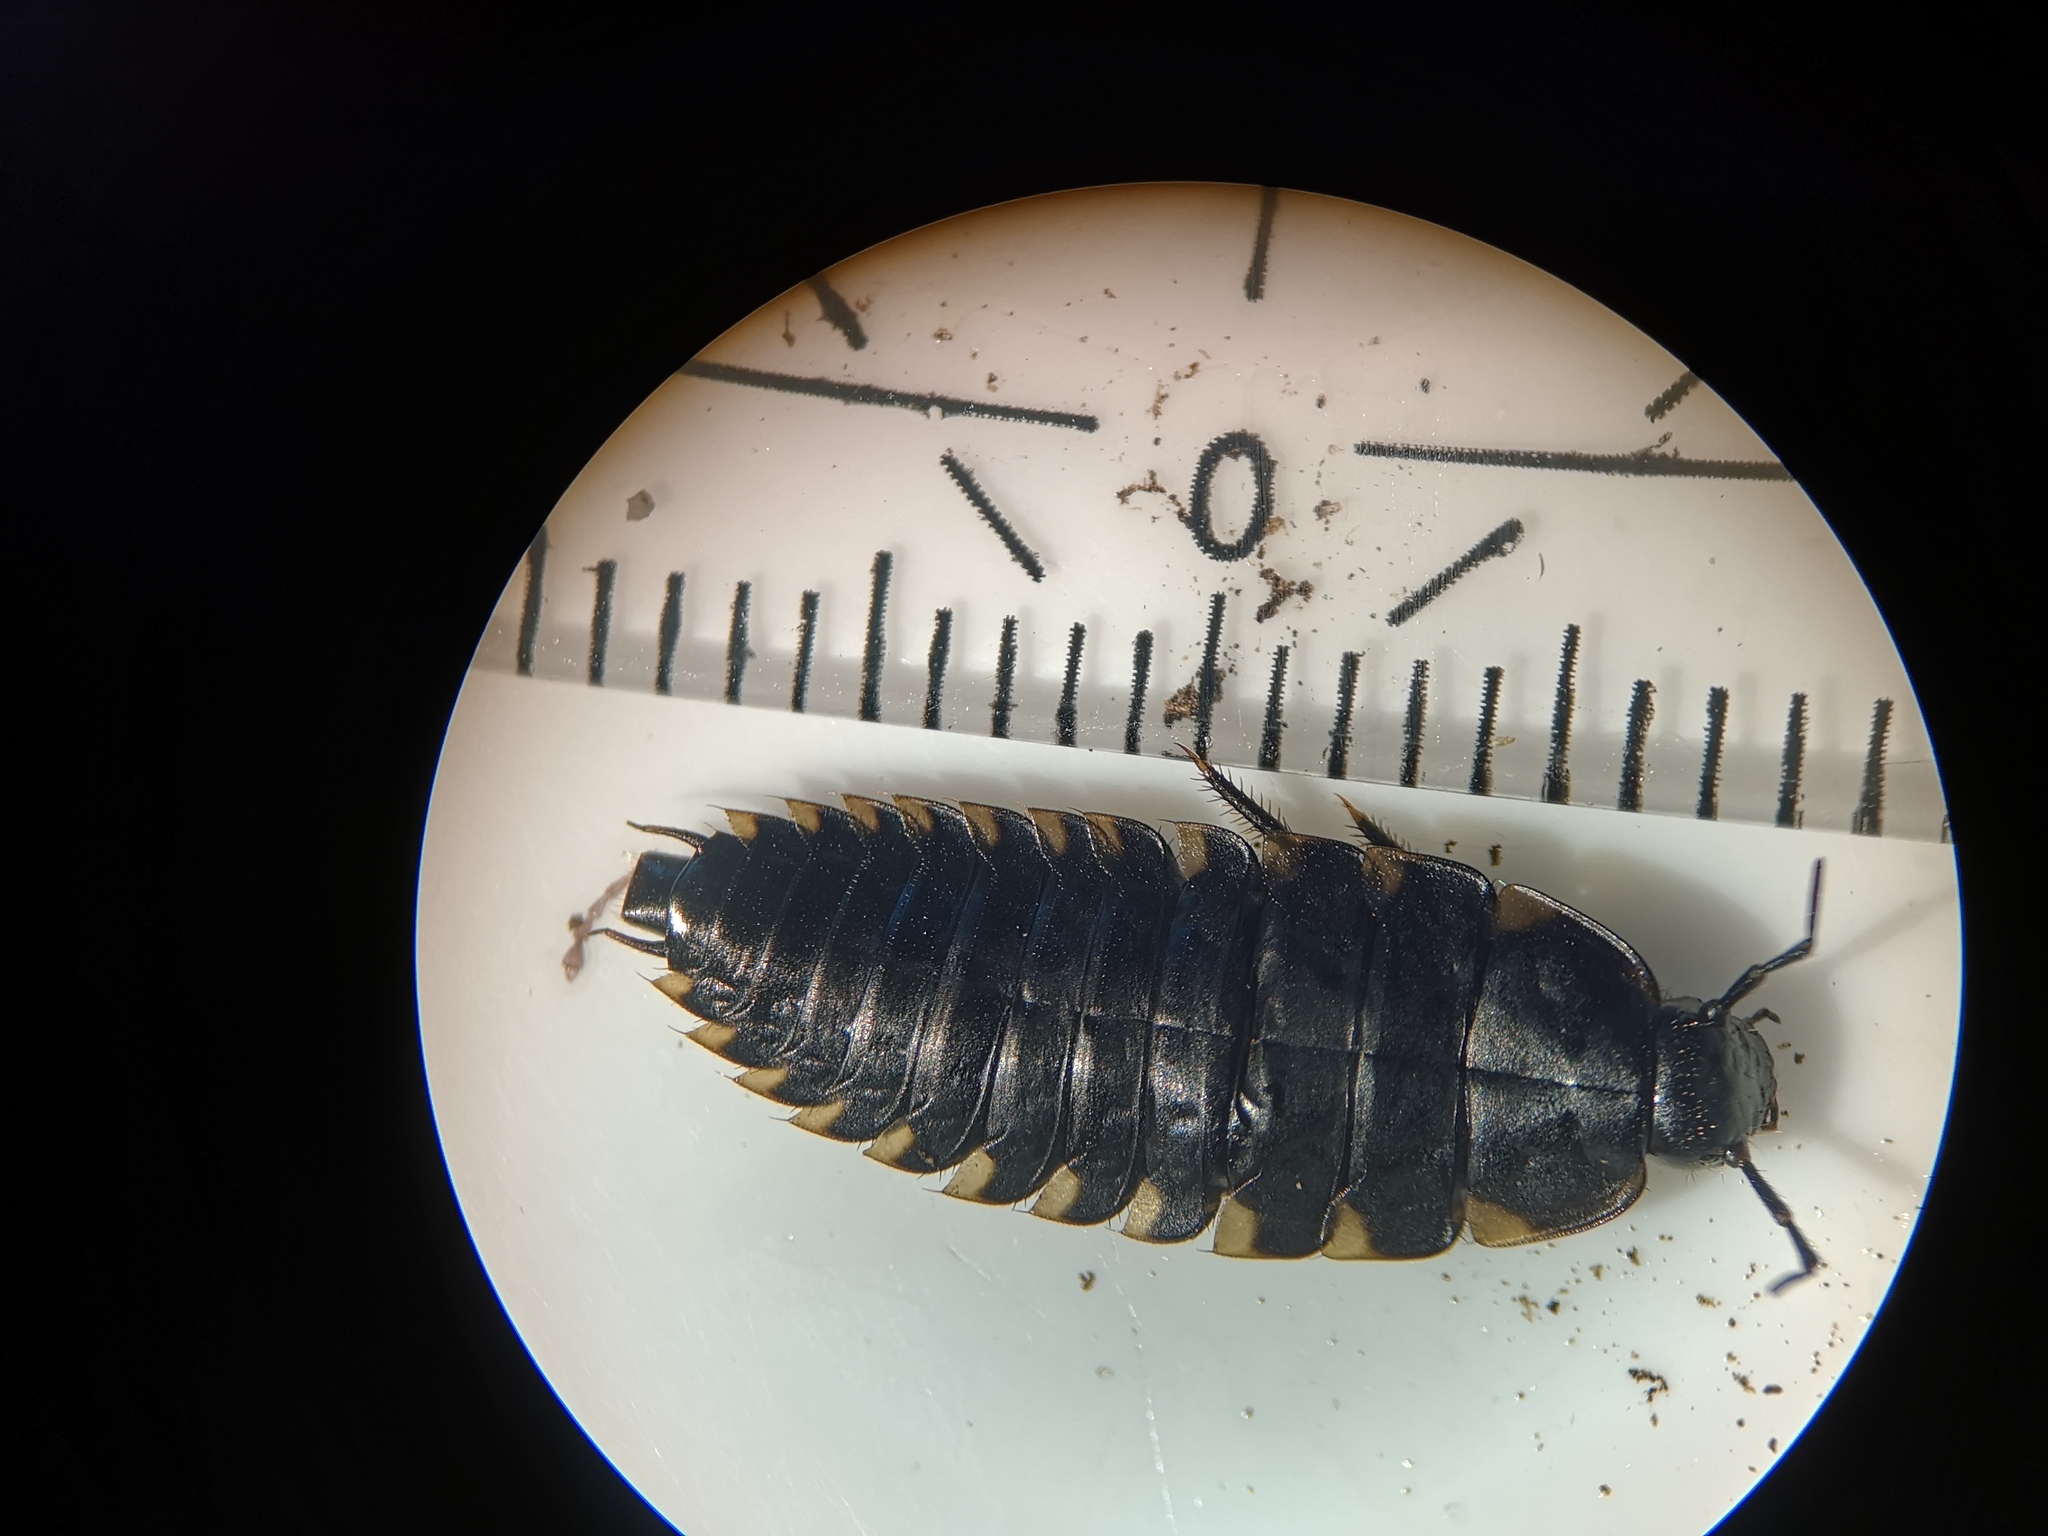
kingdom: Animalia
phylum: Arthropoda
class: Insecta
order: Coleoptera
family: Staphylinidae
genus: Silpha
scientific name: Silpha tristis
